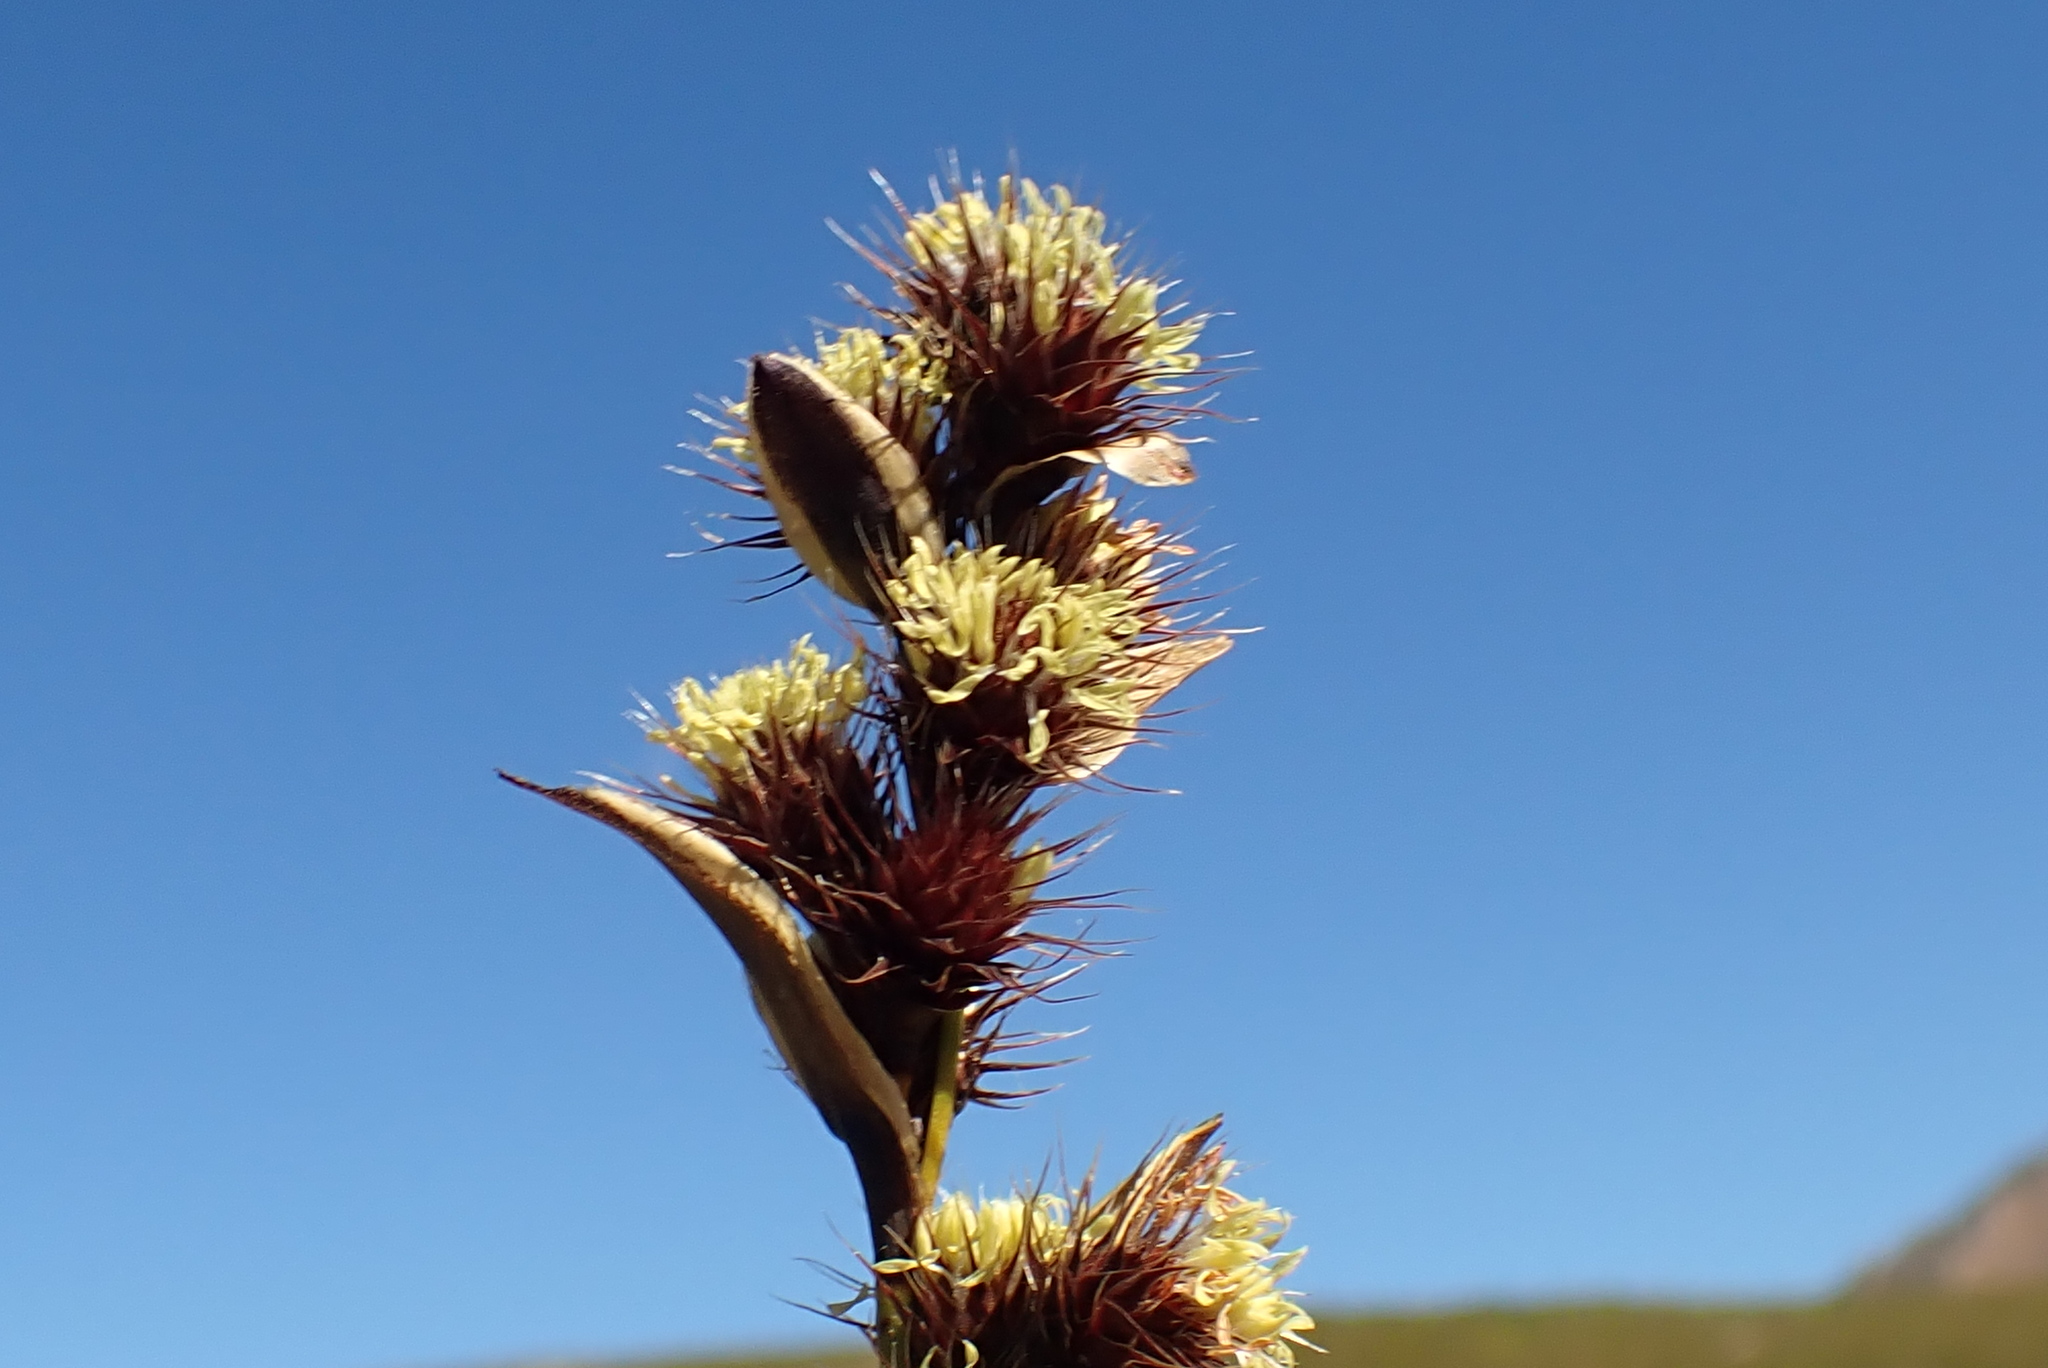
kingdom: Plantae
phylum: Tracheophyta
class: Liliopsida
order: Poales
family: Restionaceae
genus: Hypodiscus
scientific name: Hypodiscus aristatus
